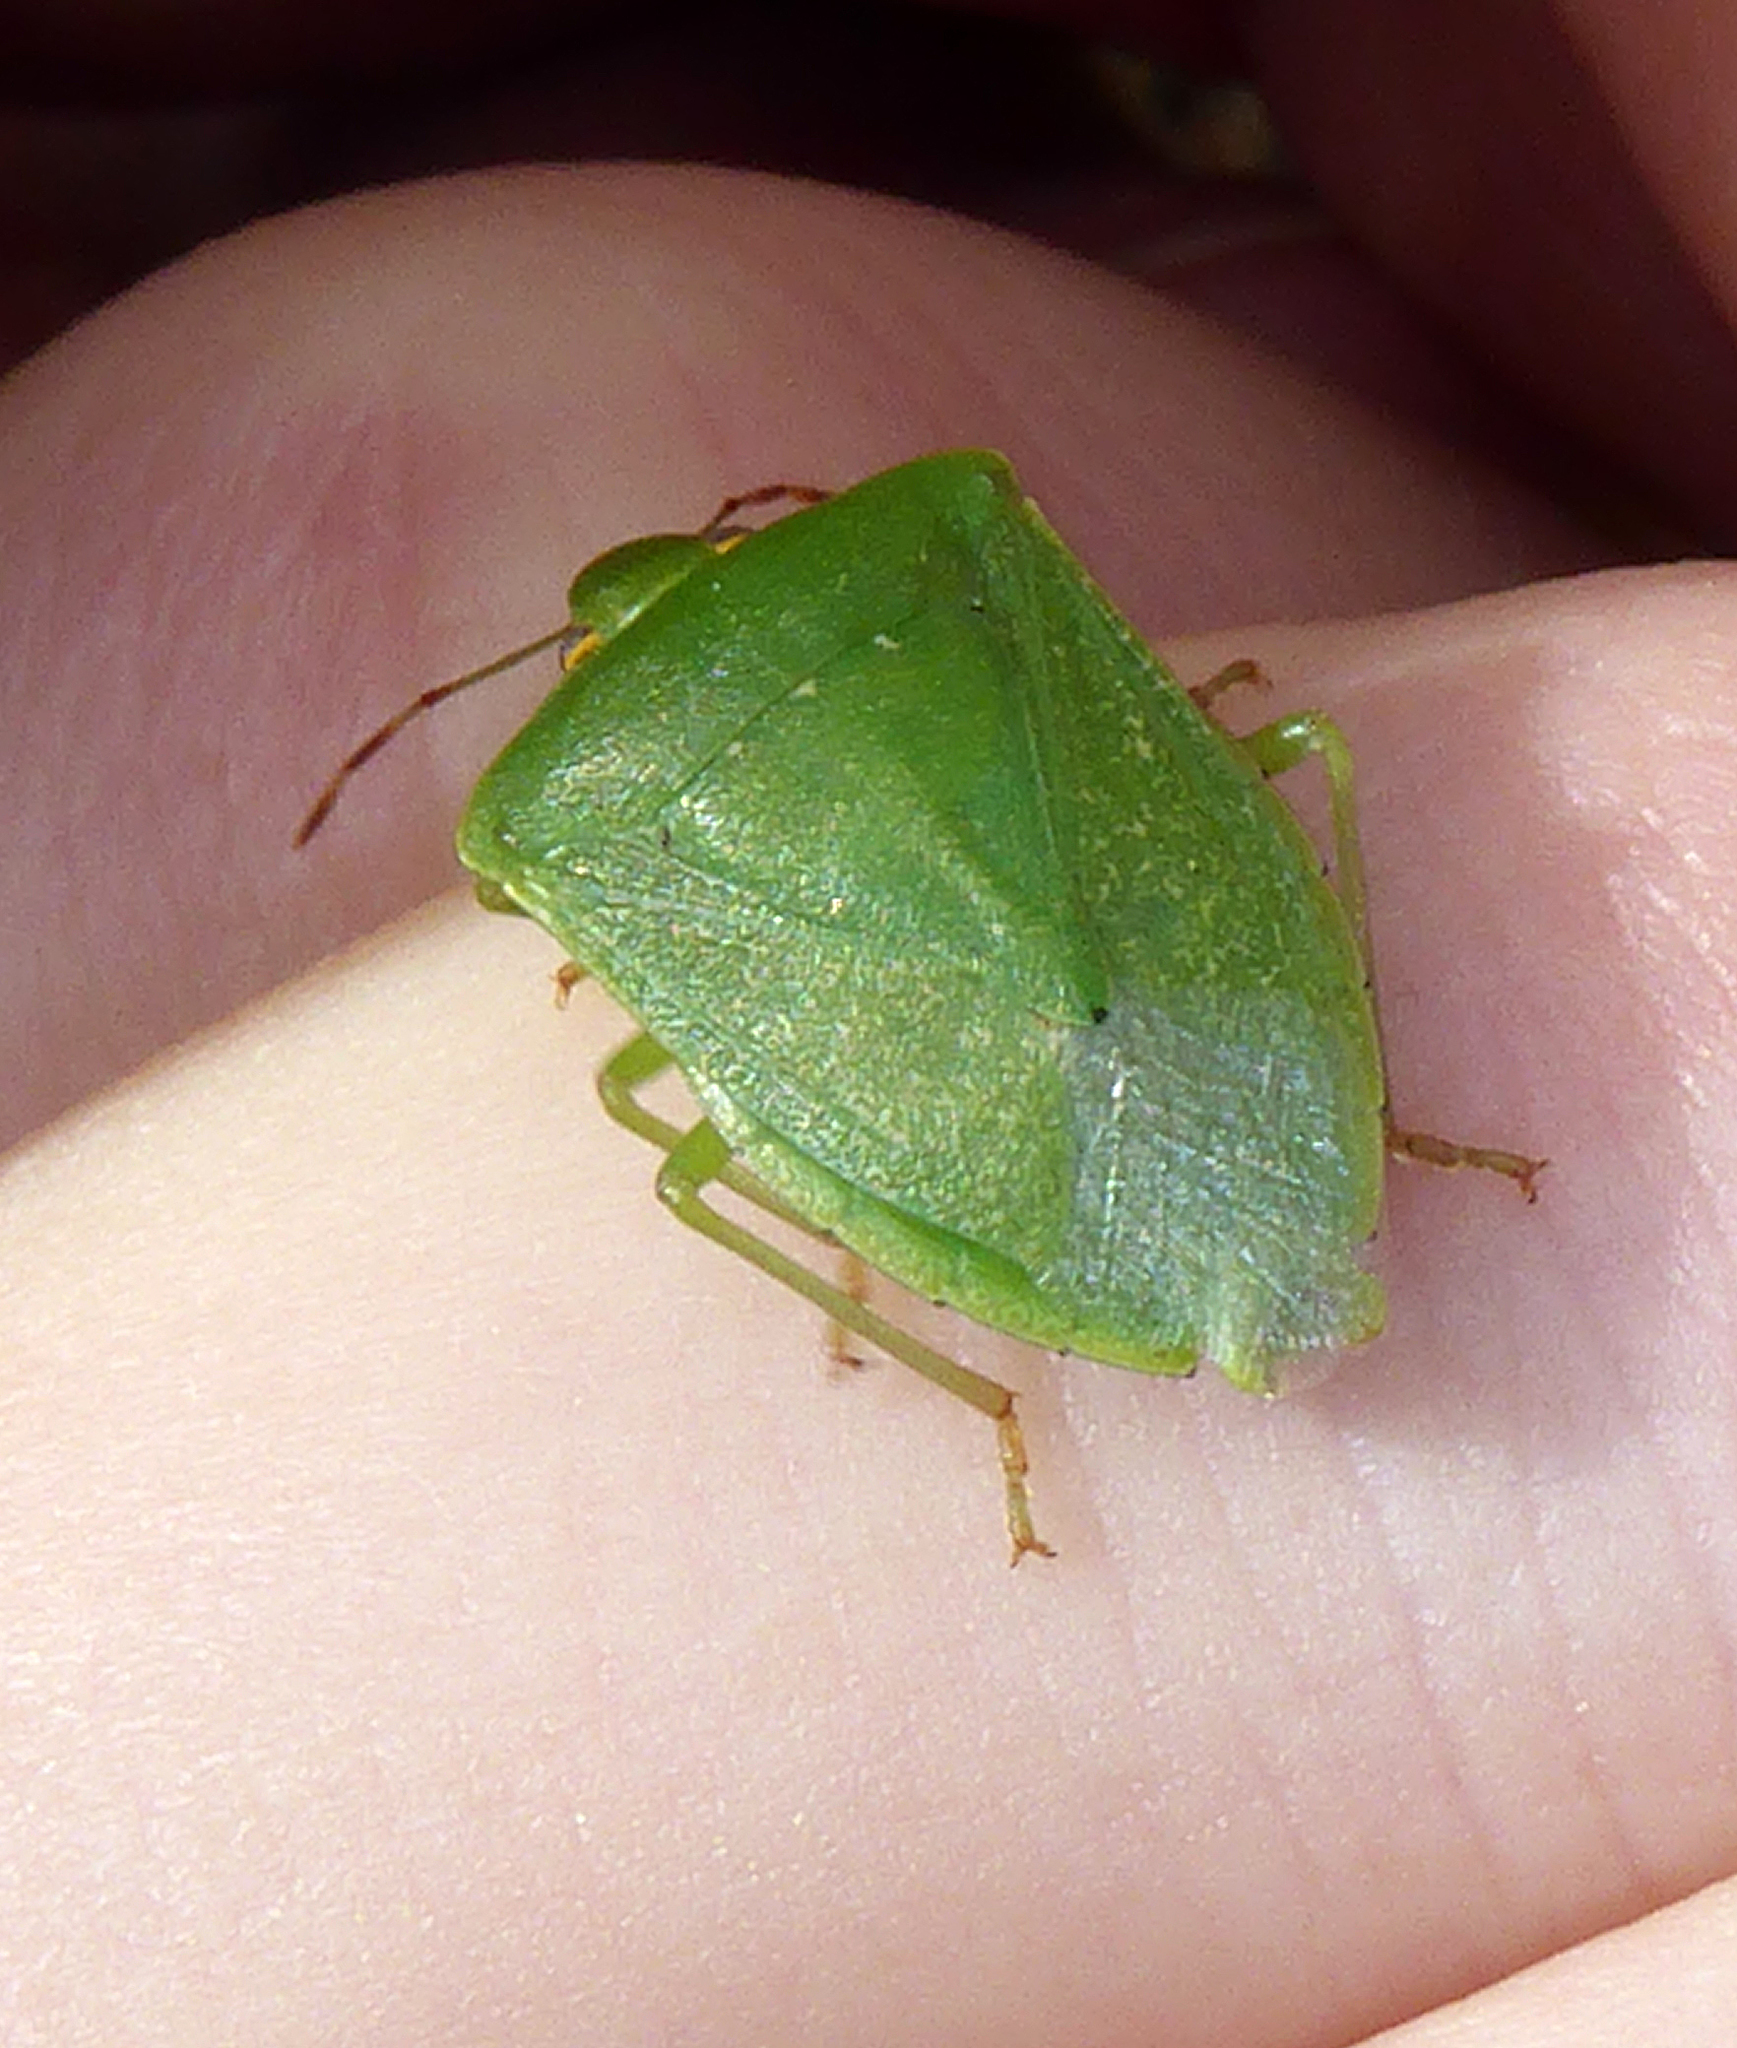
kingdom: Animalia
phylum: Arthropoda
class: Insecta
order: Hemiptera
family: Pentatomidae
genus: Nezara
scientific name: Nezara viridula
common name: Southern green stink bug
